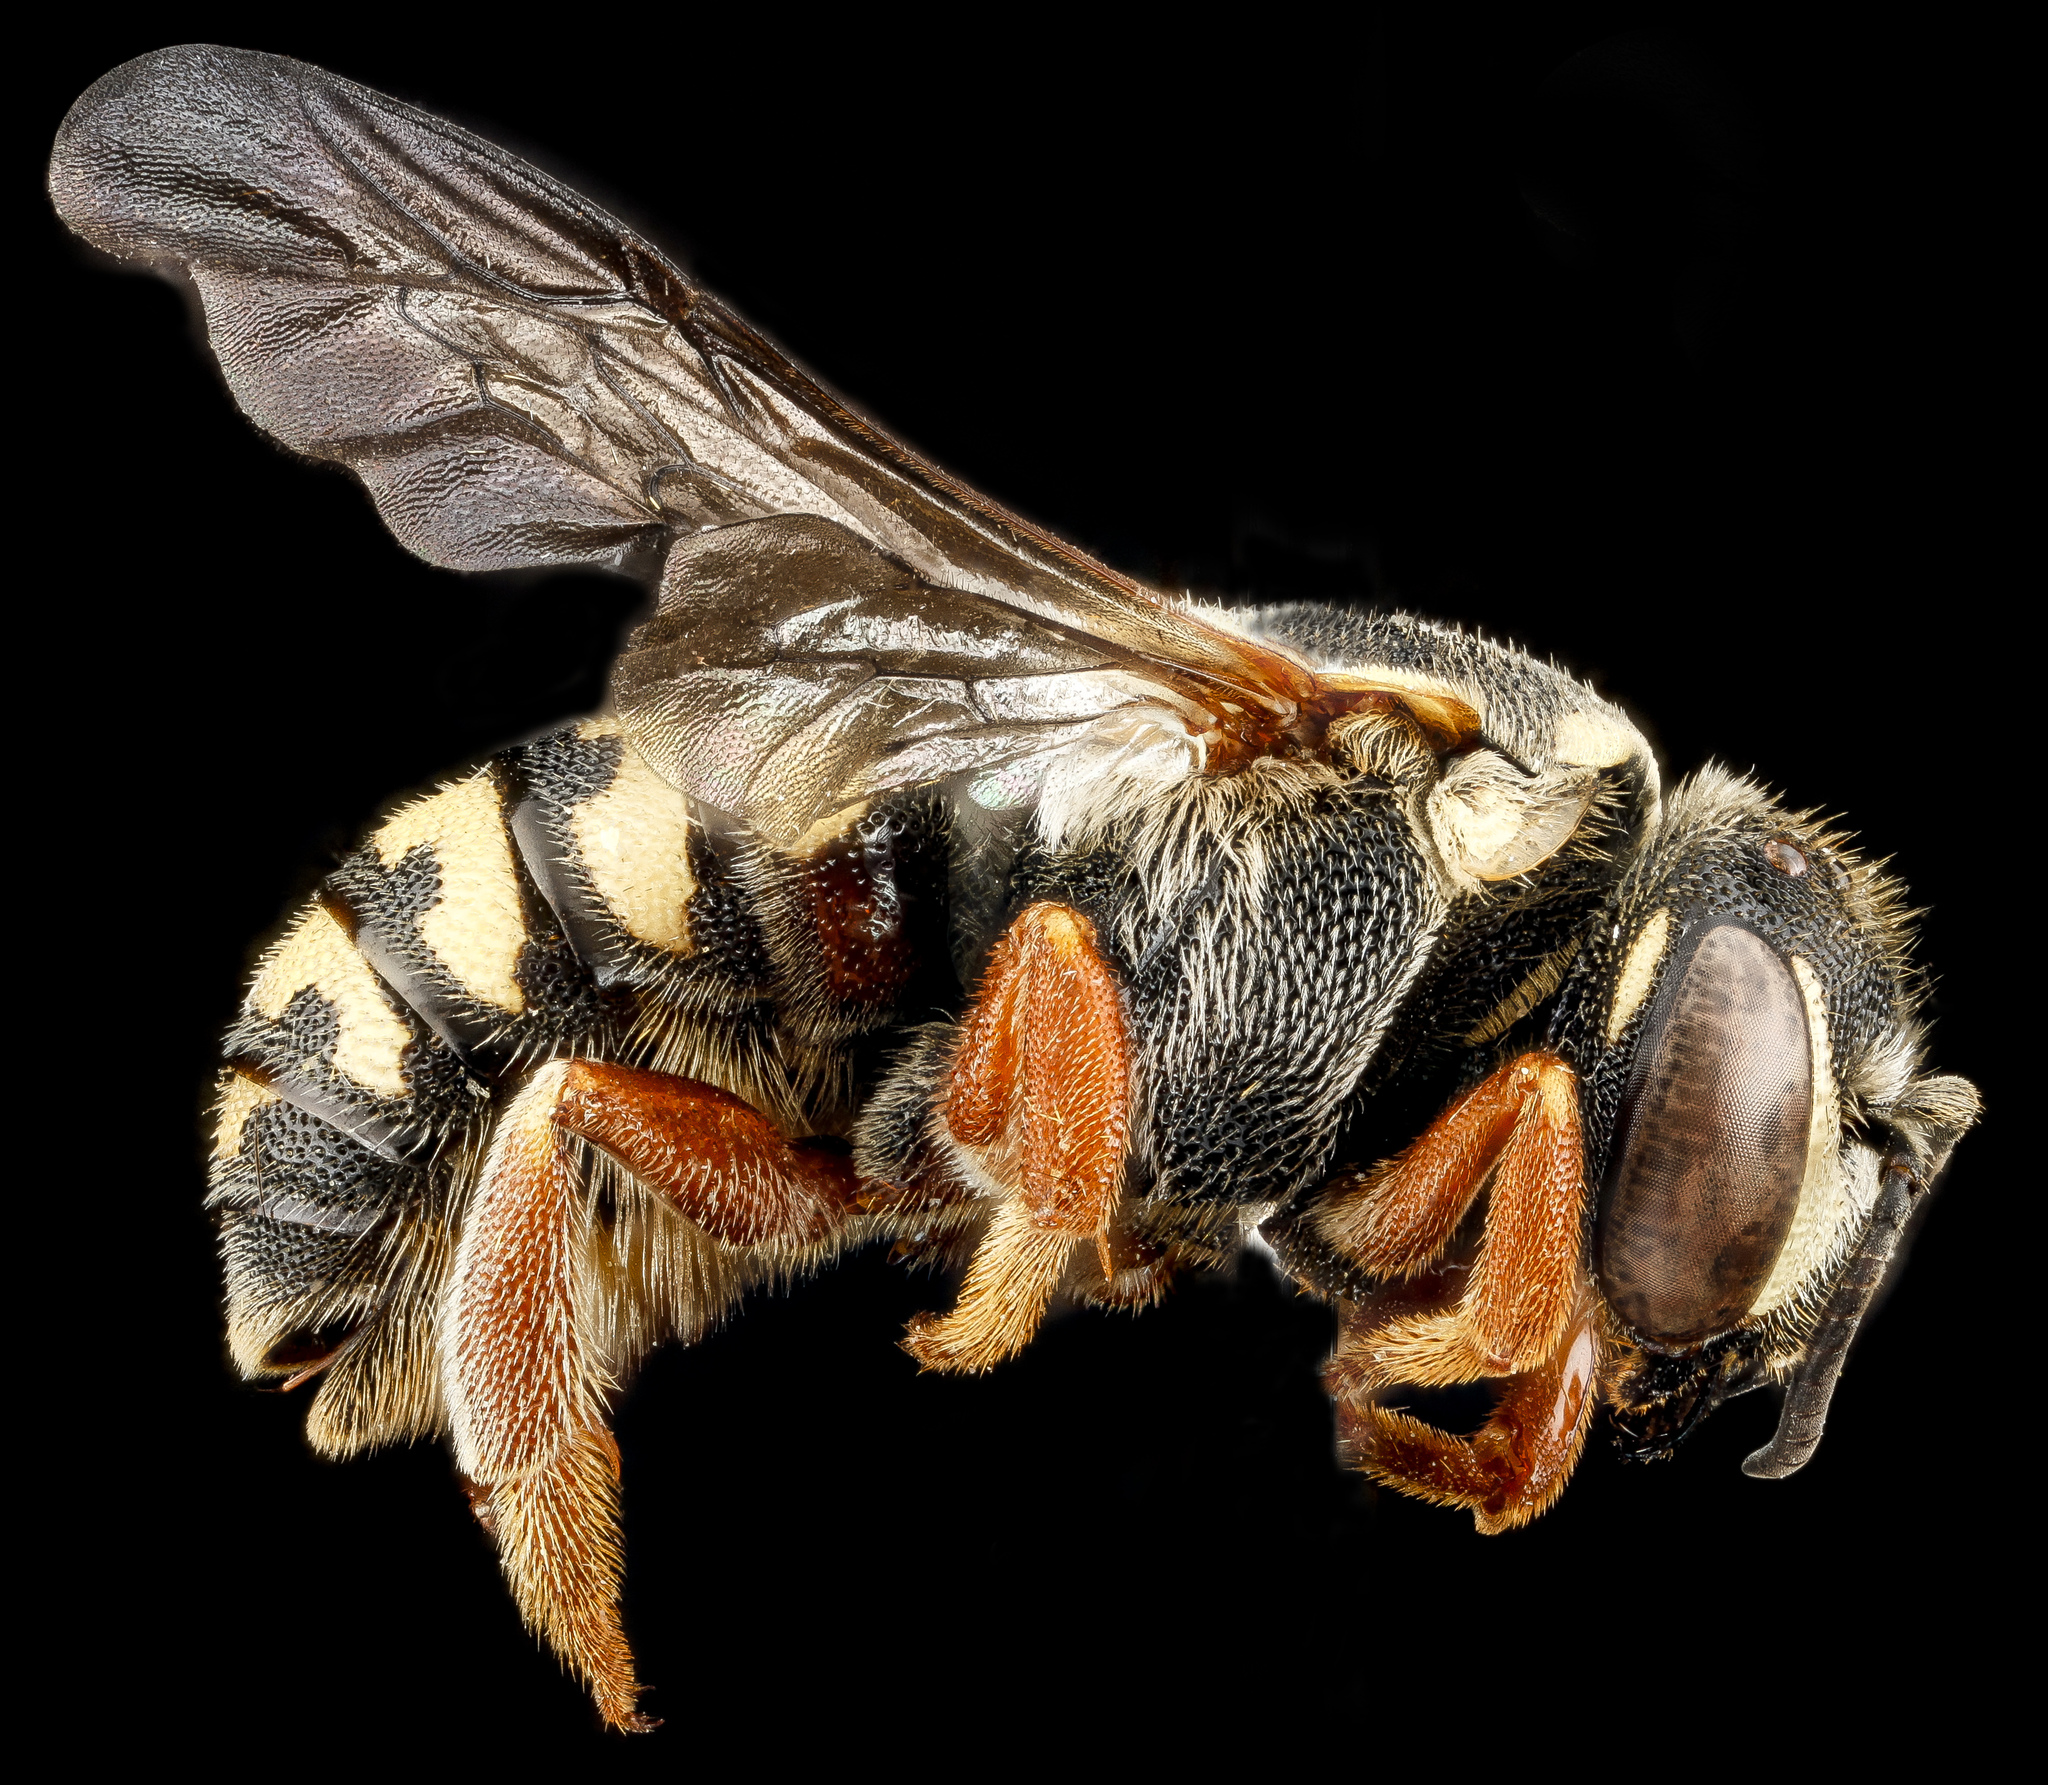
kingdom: Animalia
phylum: Arthropoda
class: Insecta
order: Hymenoptera
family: Megachilidae
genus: Dianthidium
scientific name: Dianthidium concinnum
